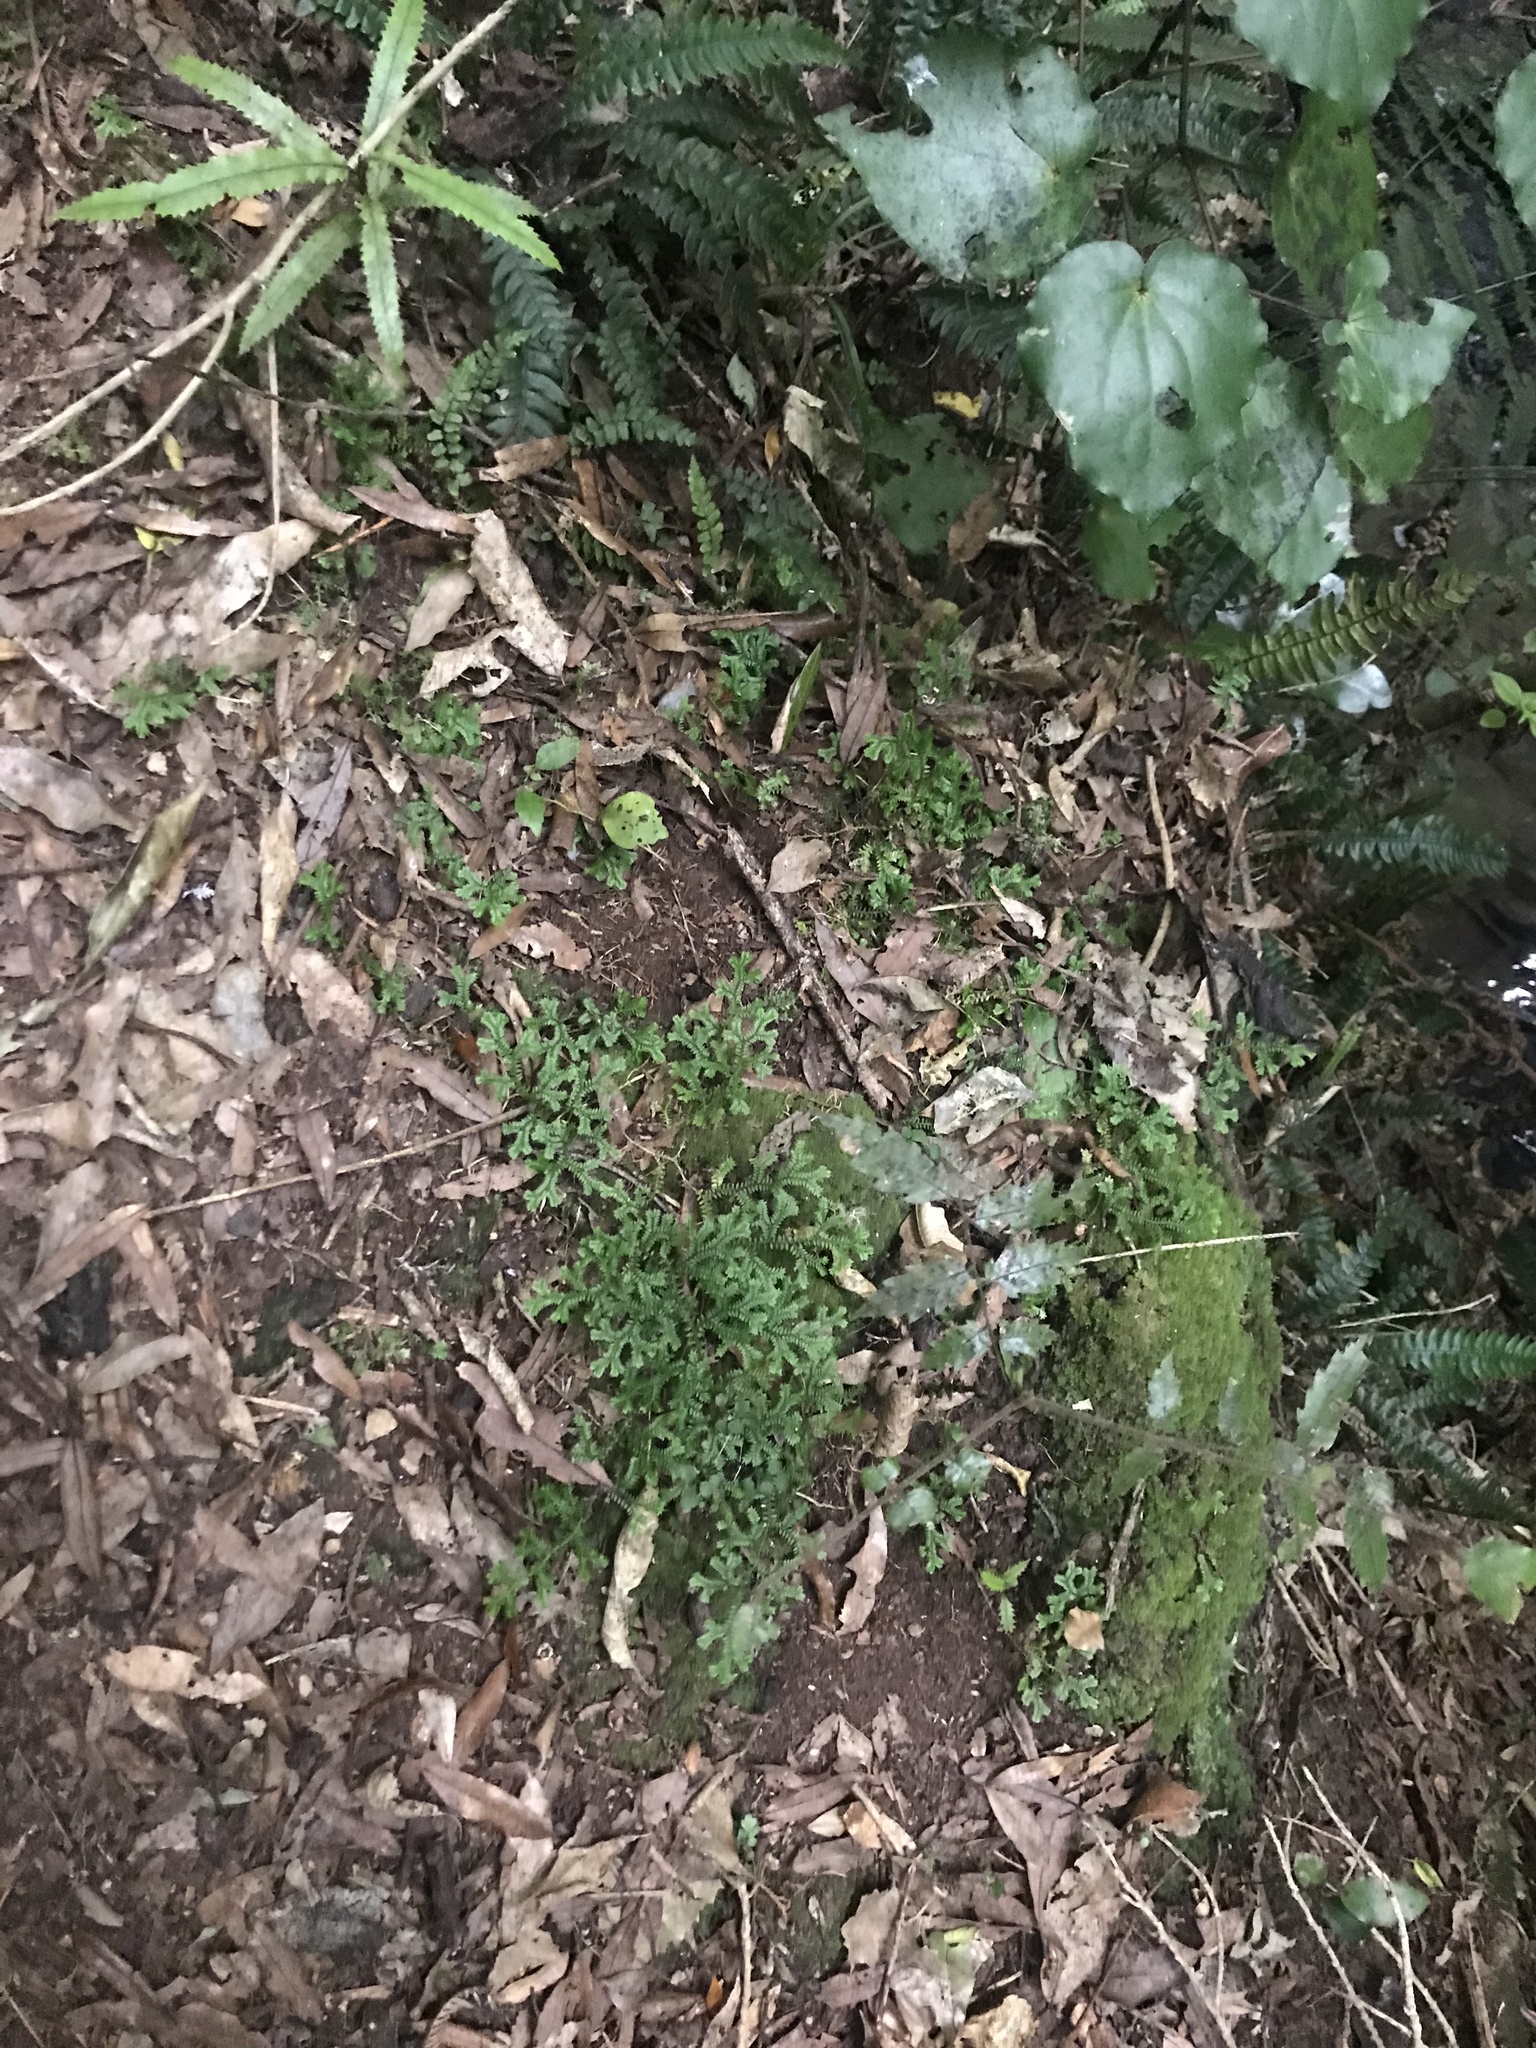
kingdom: Plantae
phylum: Tracheophyta
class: Lycopodiopsida
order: Selaginellales
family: Selaginellaceae
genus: Selaginella
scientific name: Selaginella kraussiana
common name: Krauss' spikemoss
